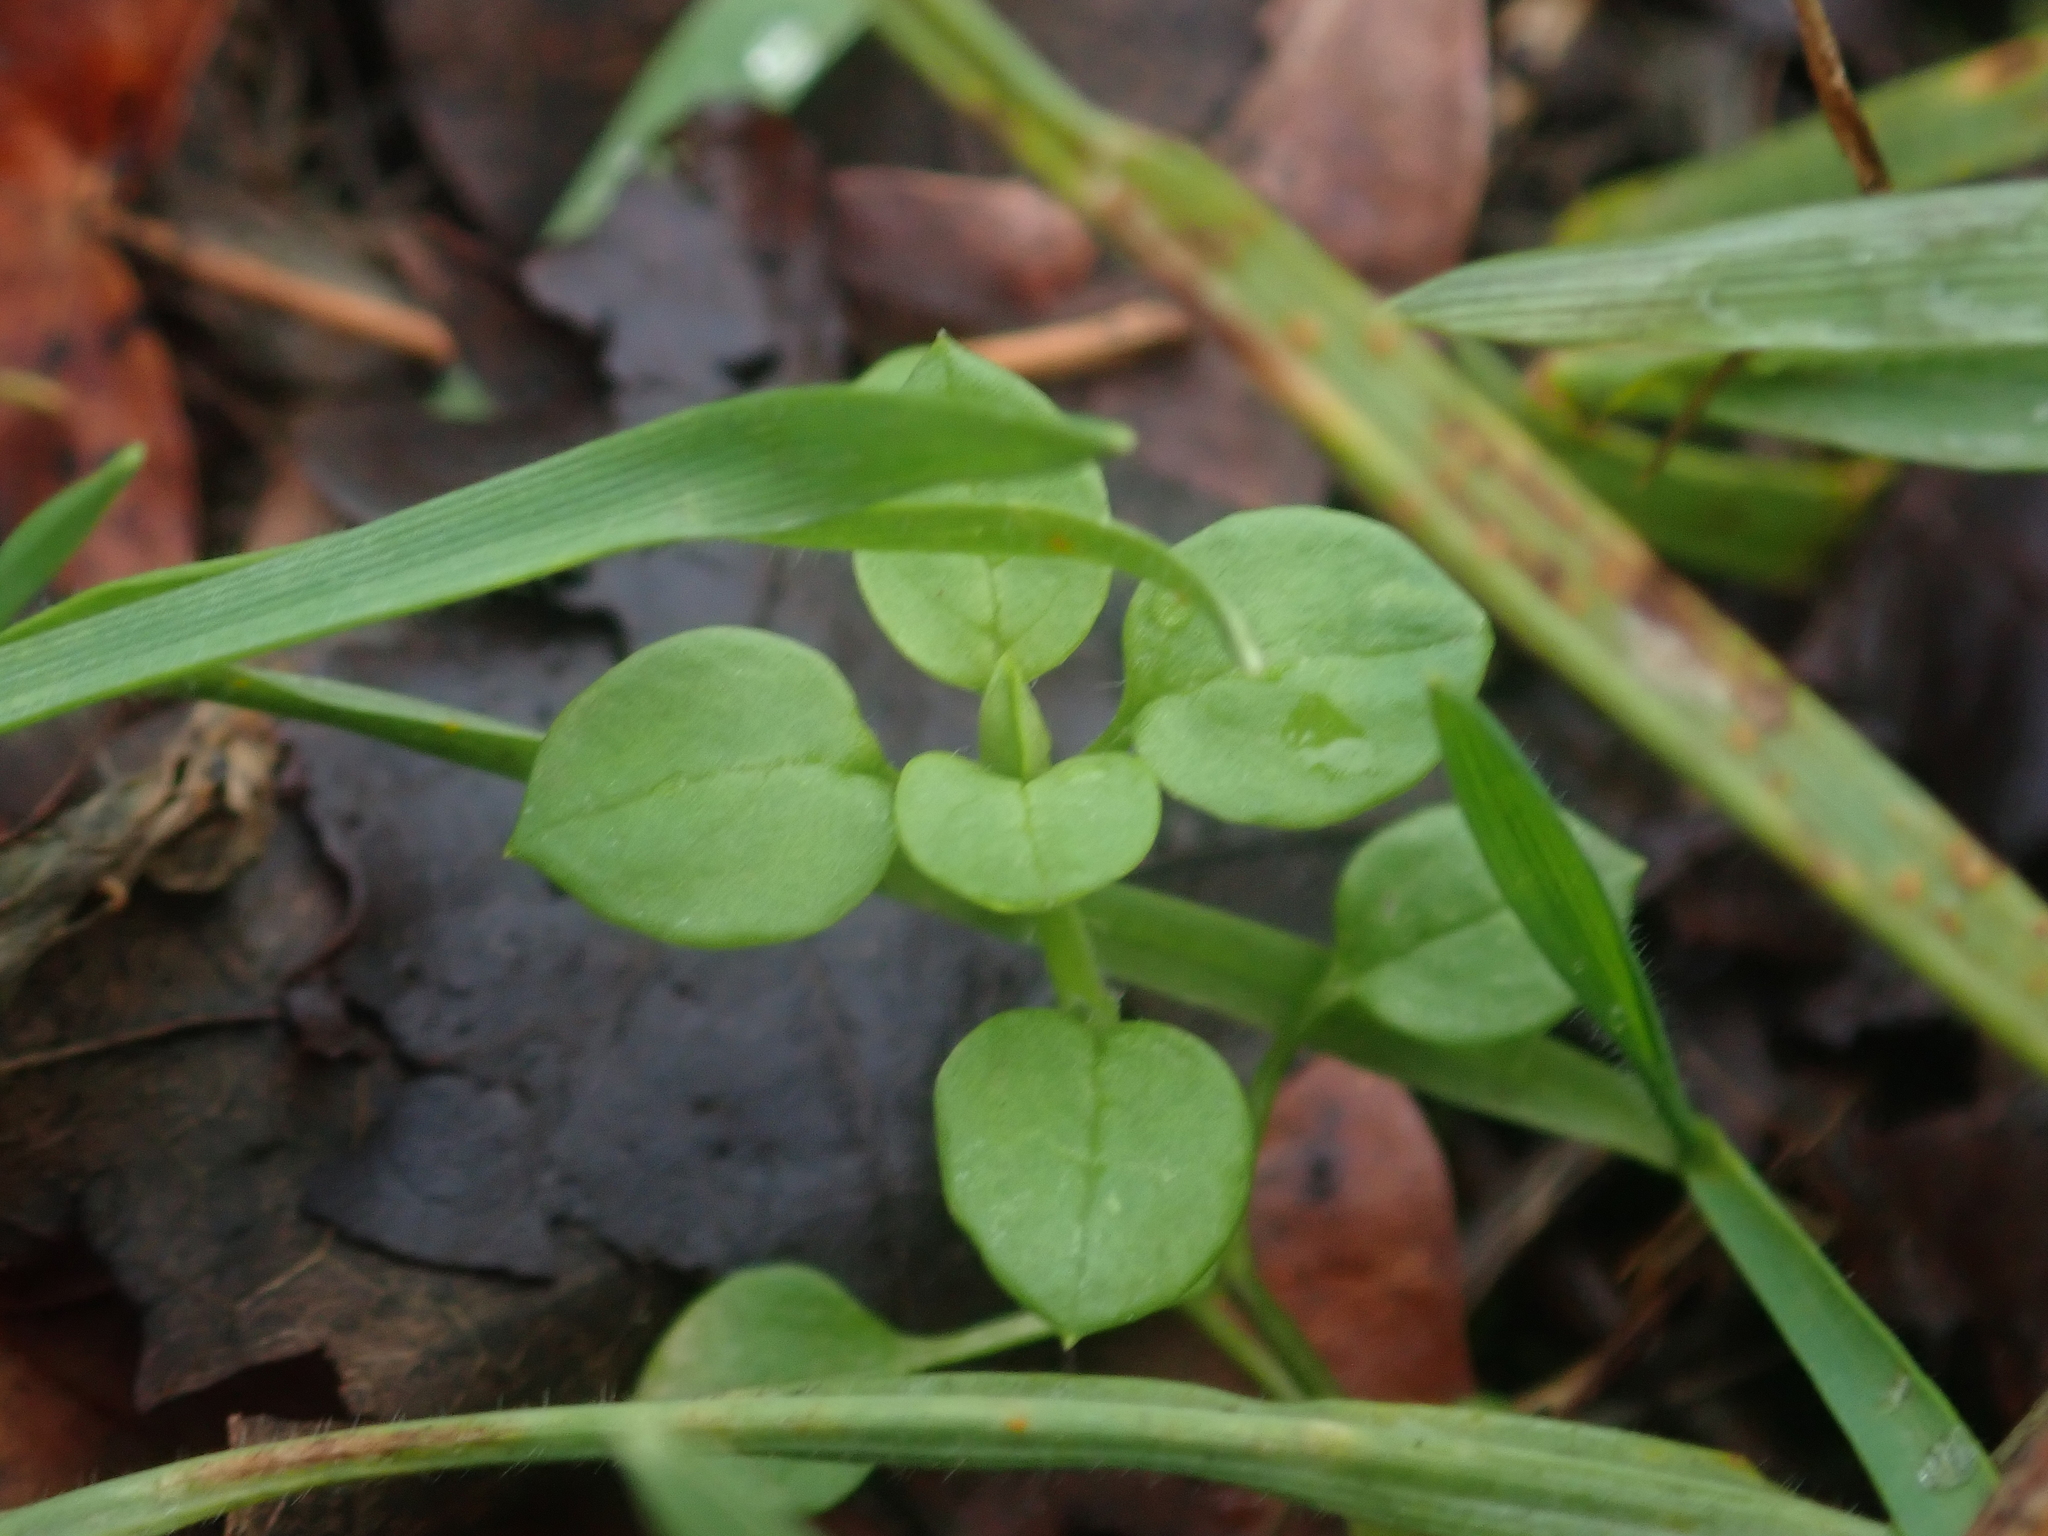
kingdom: Plantae
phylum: Tracheophyta
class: Magnoliopsida
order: Caryophyllales
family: Caryophyllaceae
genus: Stellaria
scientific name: Stellaria media
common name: Common chickweed
